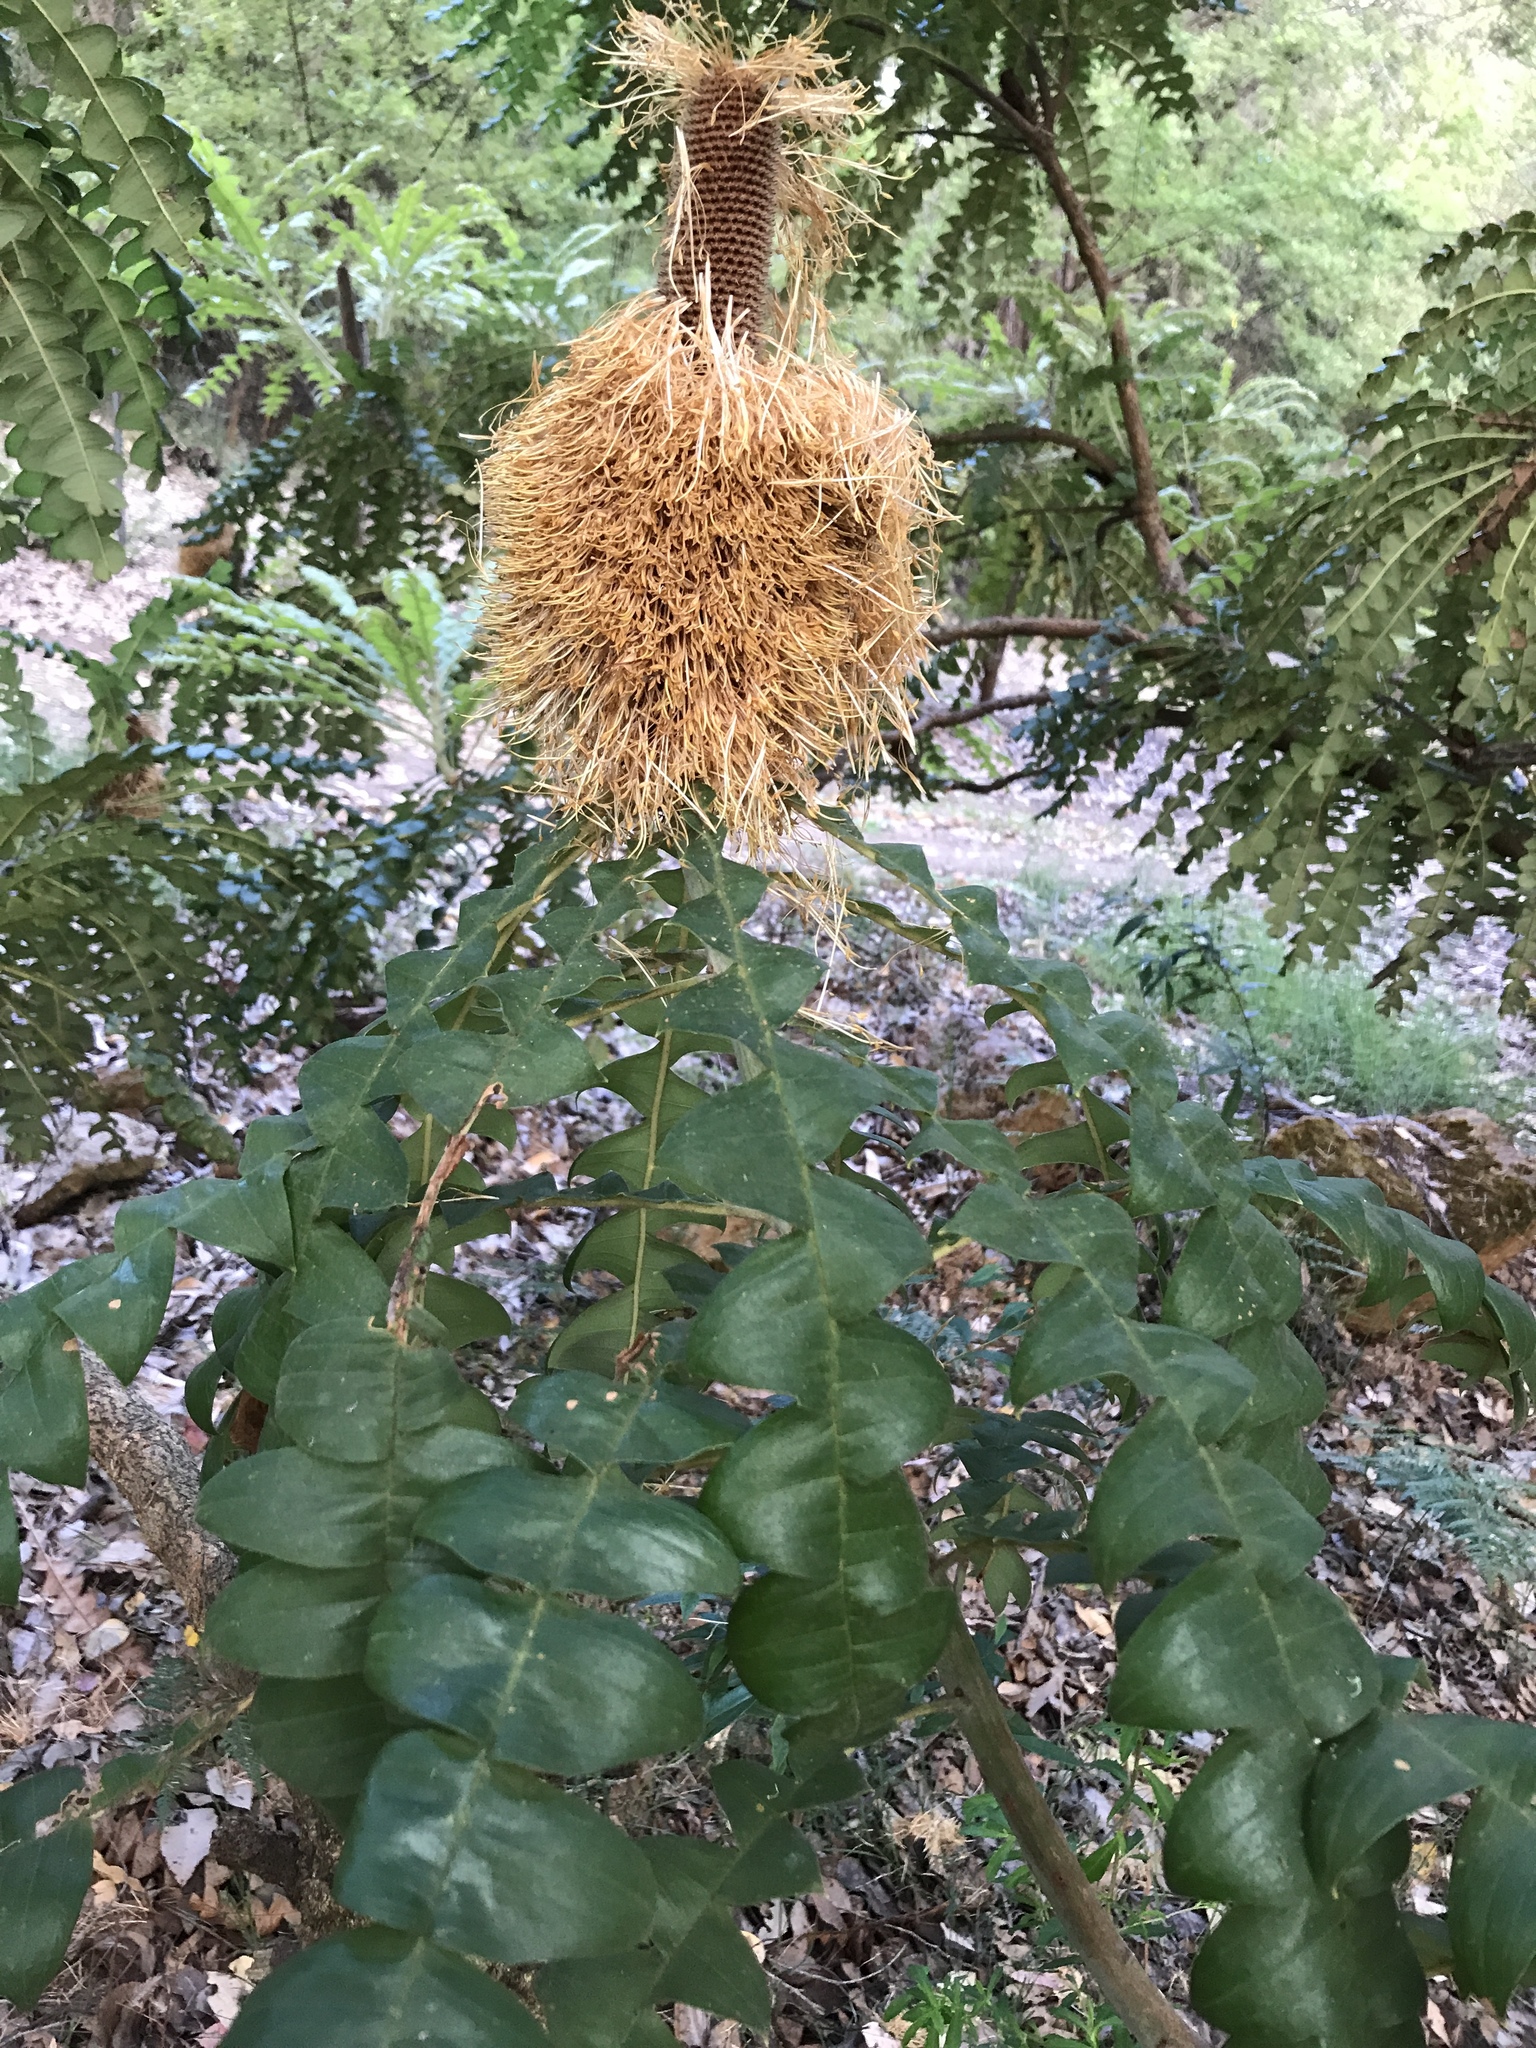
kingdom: Plantae
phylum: Tracheophyta
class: Magnoliopsida
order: Proteales
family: Proteaceae
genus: Banksia
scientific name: Banksia grandis
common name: Giant banksia
